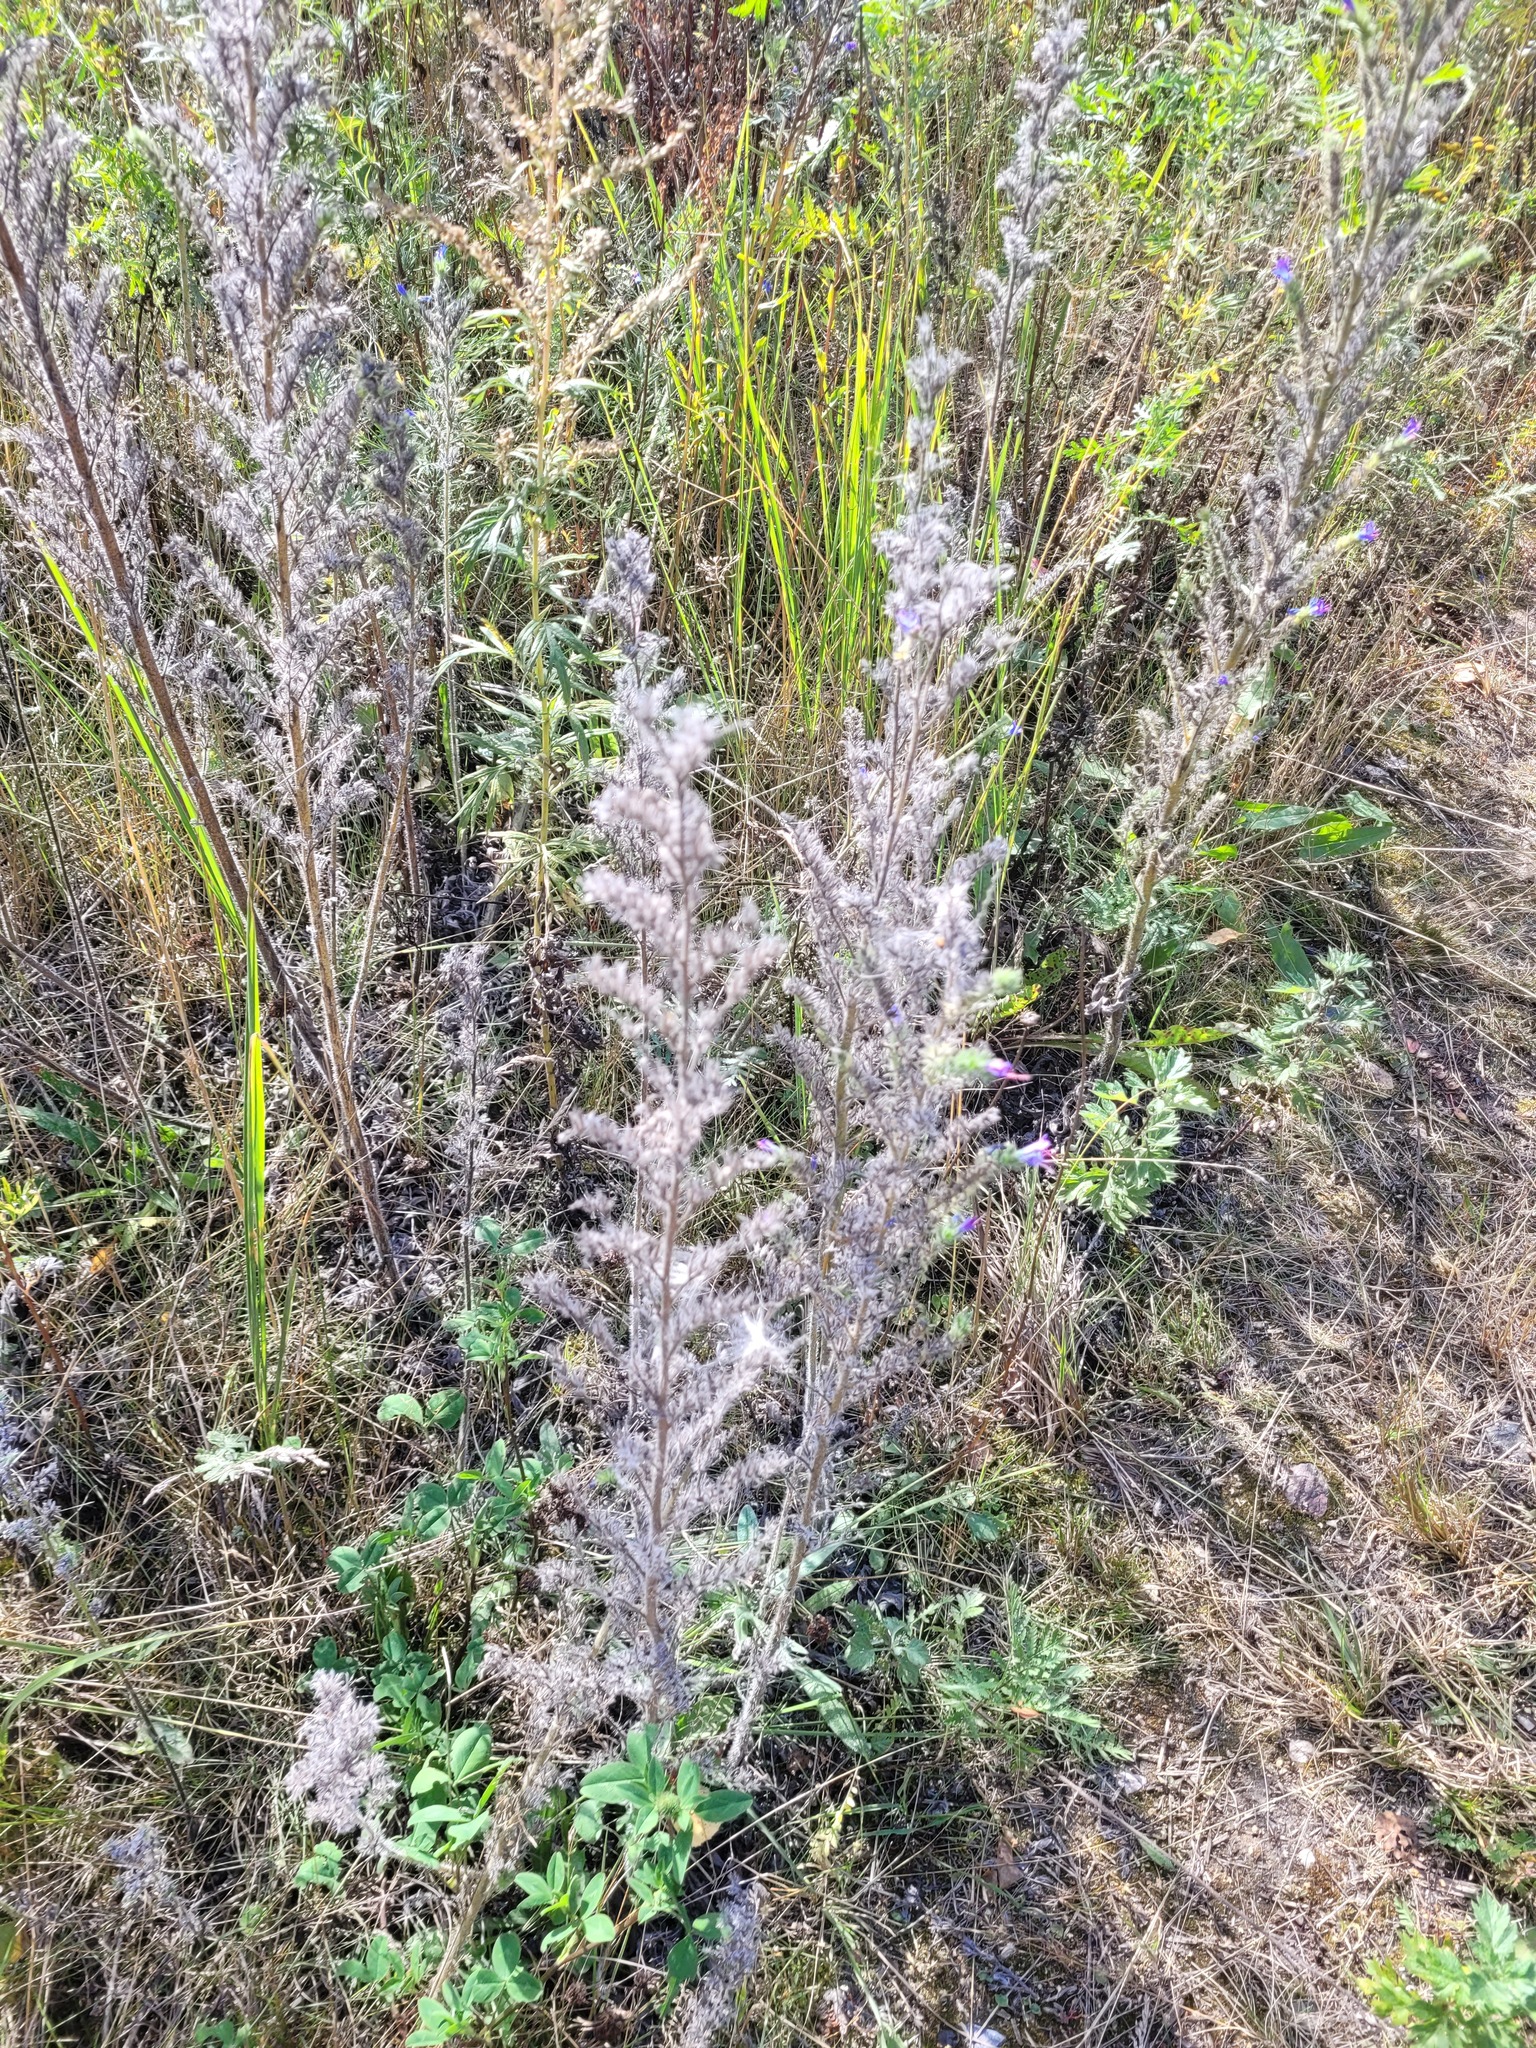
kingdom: Plantae
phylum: Tracheophyta
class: Magnoliopsida
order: Boraginales
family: Boraginaceae
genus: Echium
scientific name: Echium vulgare
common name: Common viper's bugloss
